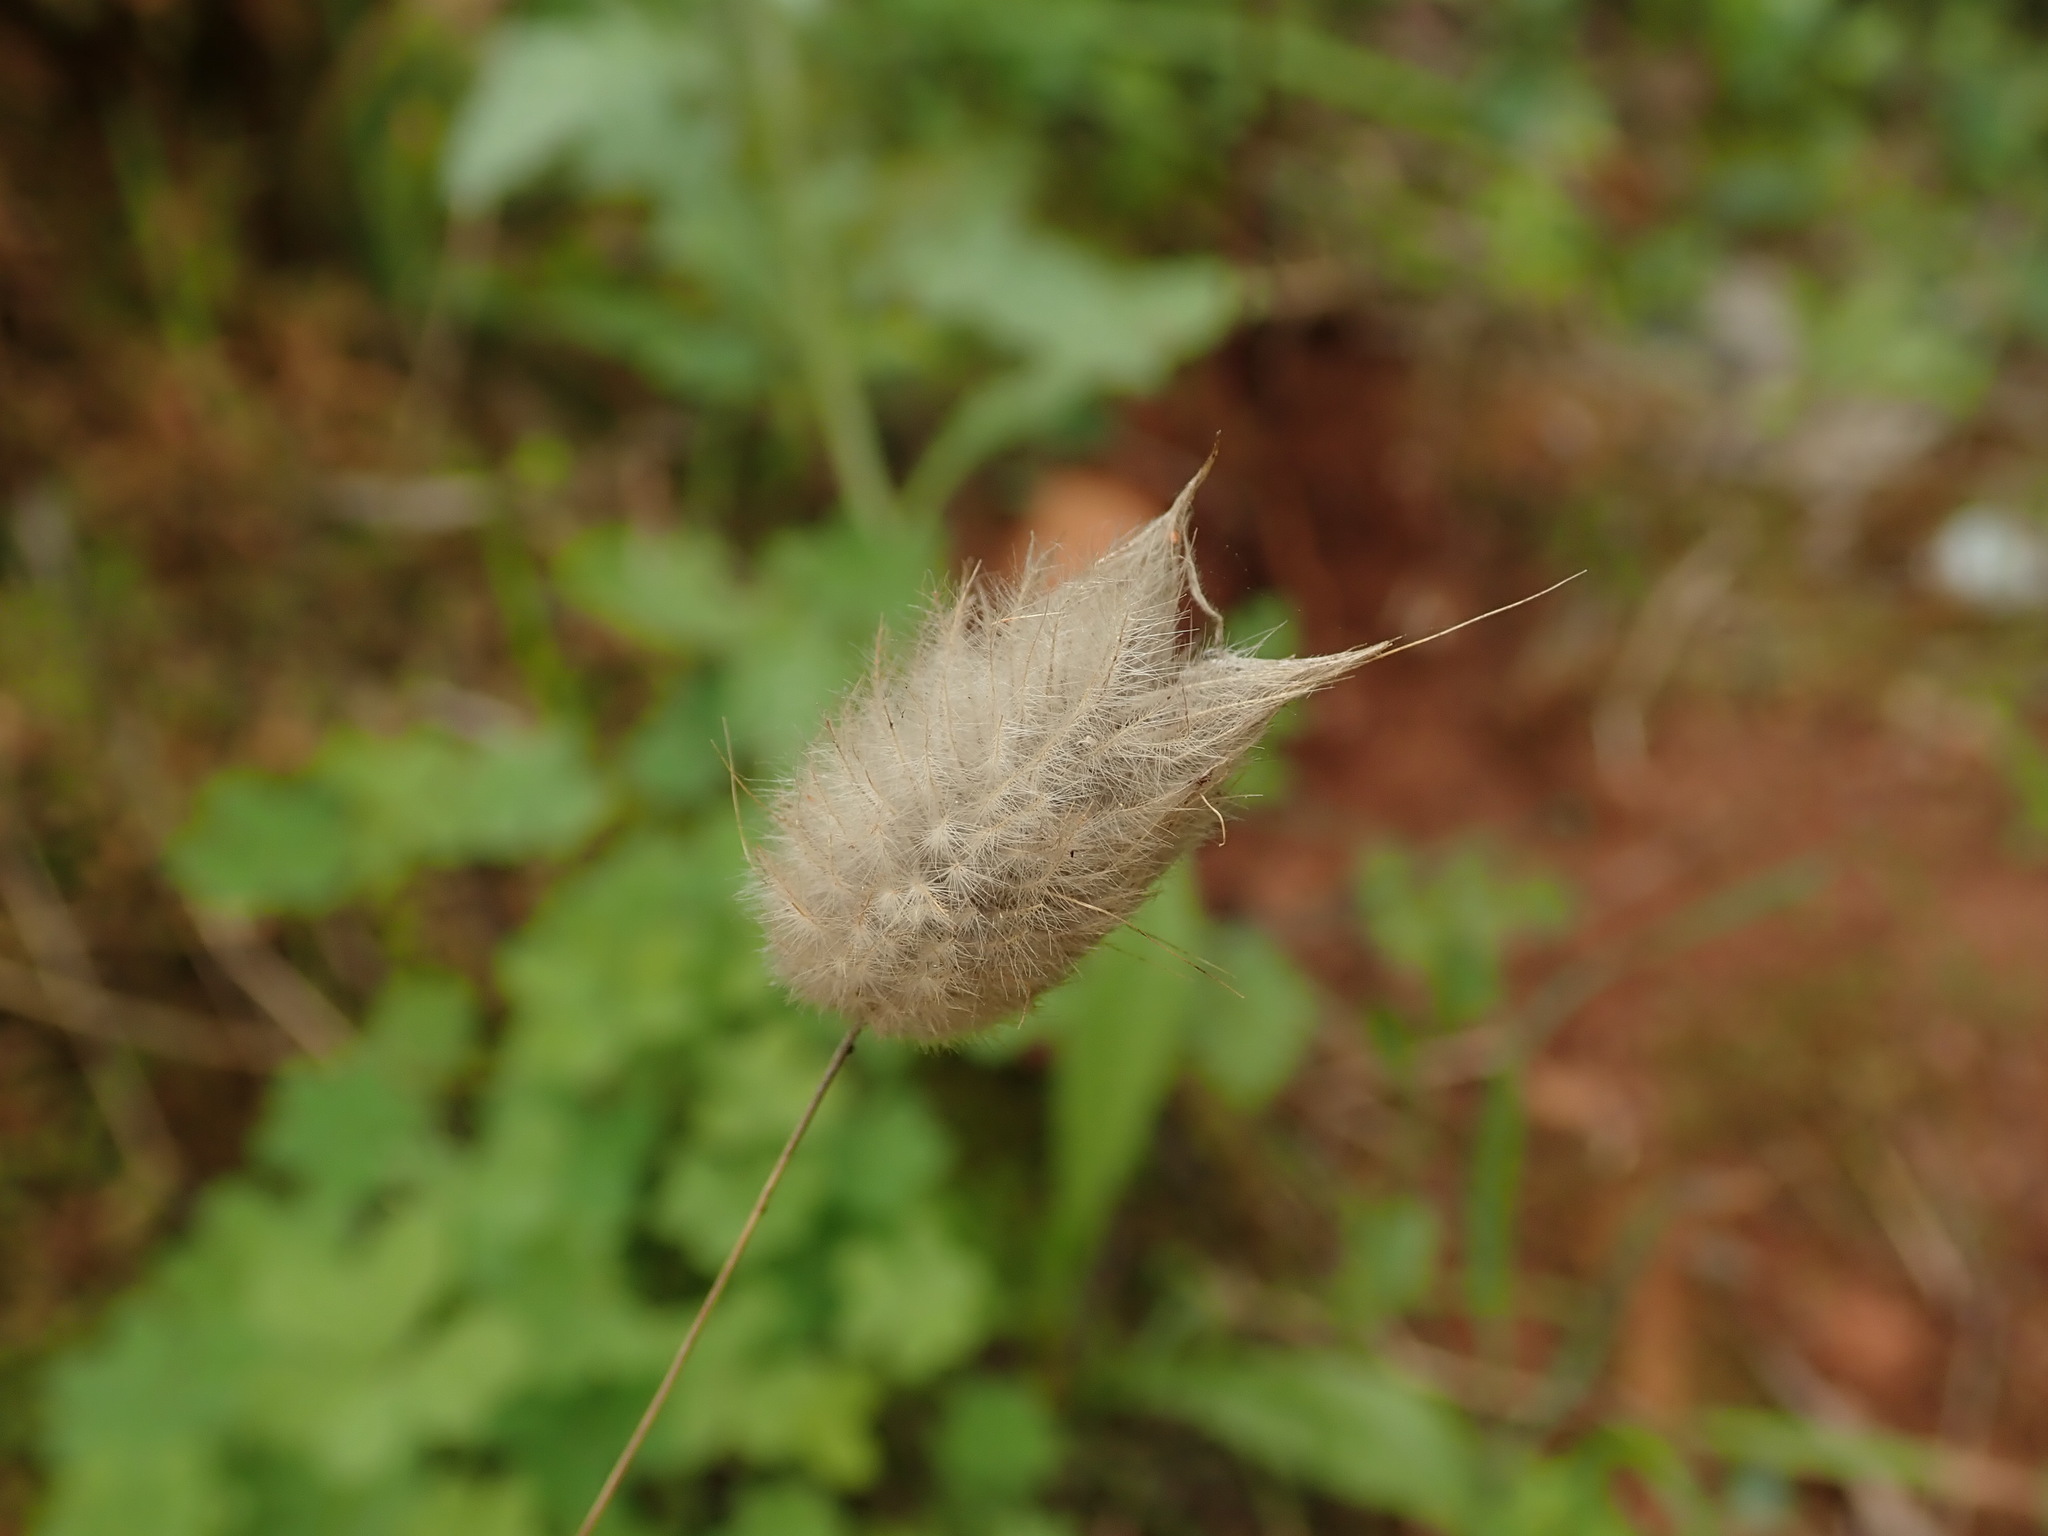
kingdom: Plantae
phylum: Tracheophyta
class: Liliopsida
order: Poales
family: Poaceae
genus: Lagurus
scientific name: Lagurus ovatus
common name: Hare's-tail
